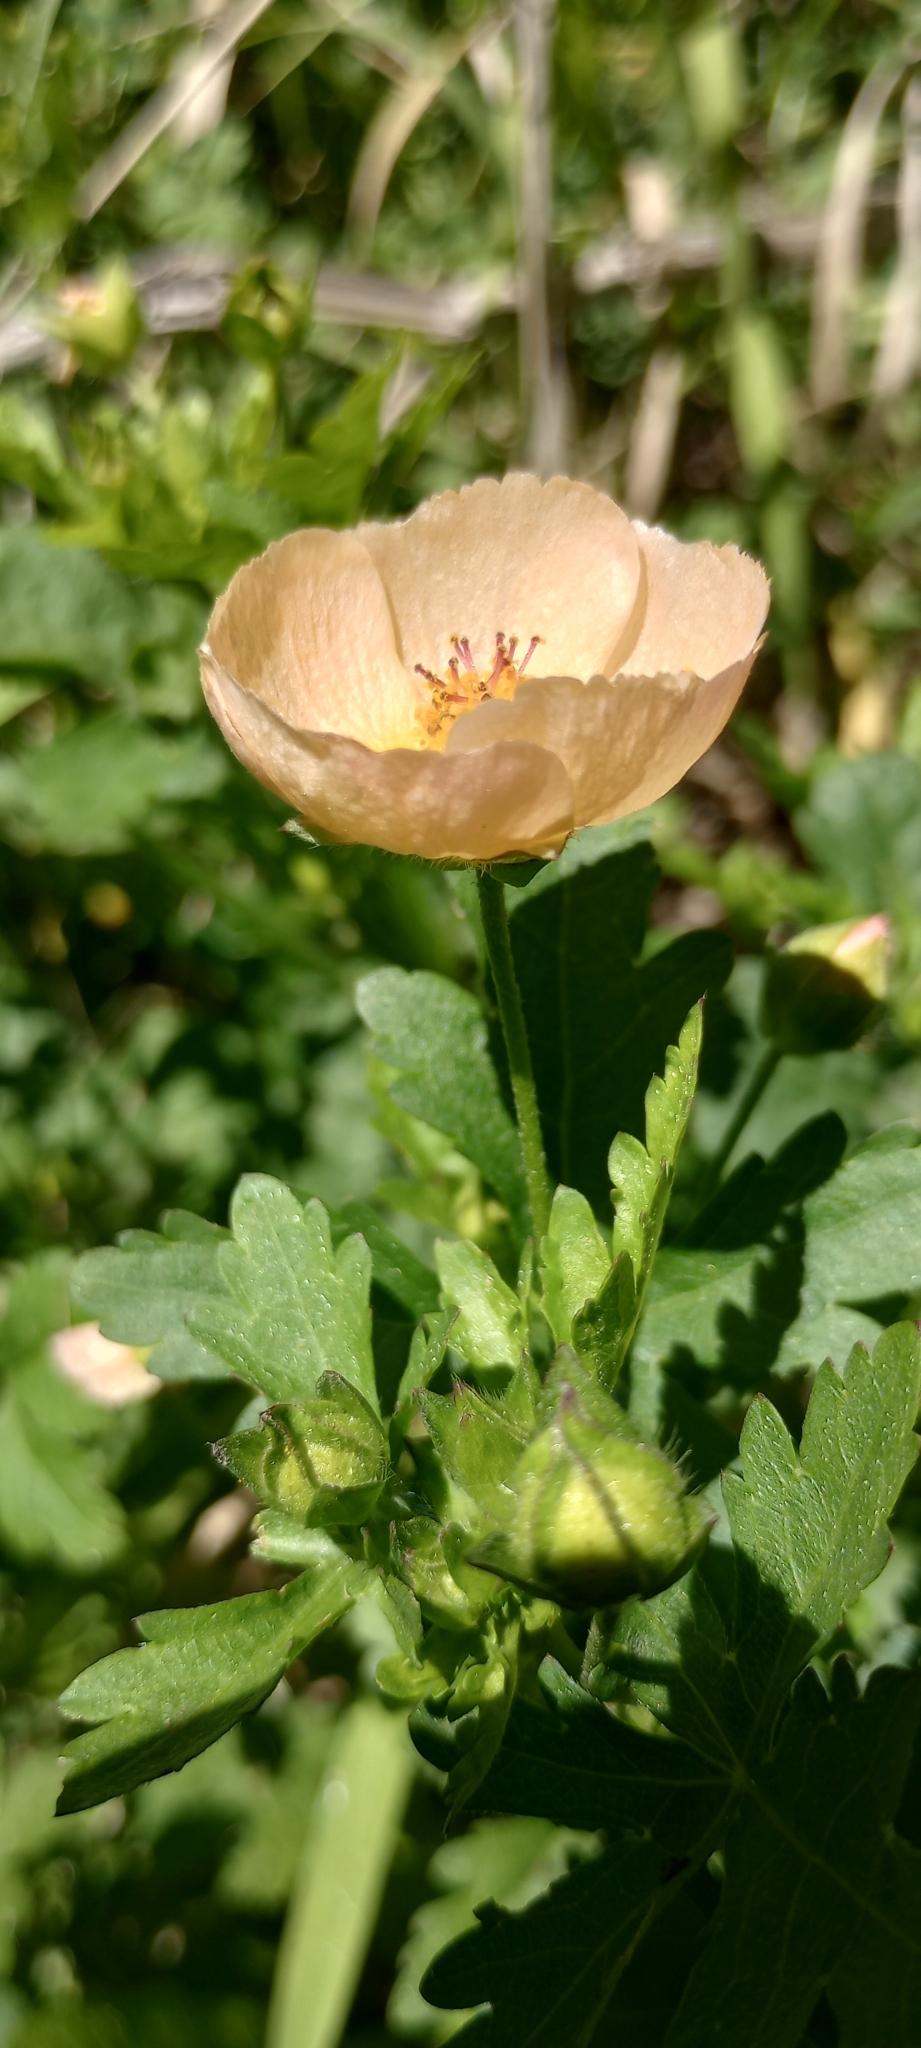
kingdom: Plantae
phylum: Tracheophyta
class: Magnoliopsida
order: Malvales
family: Malvaceae
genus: Modiolastrum
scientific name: Modiolastrum malvifolium
